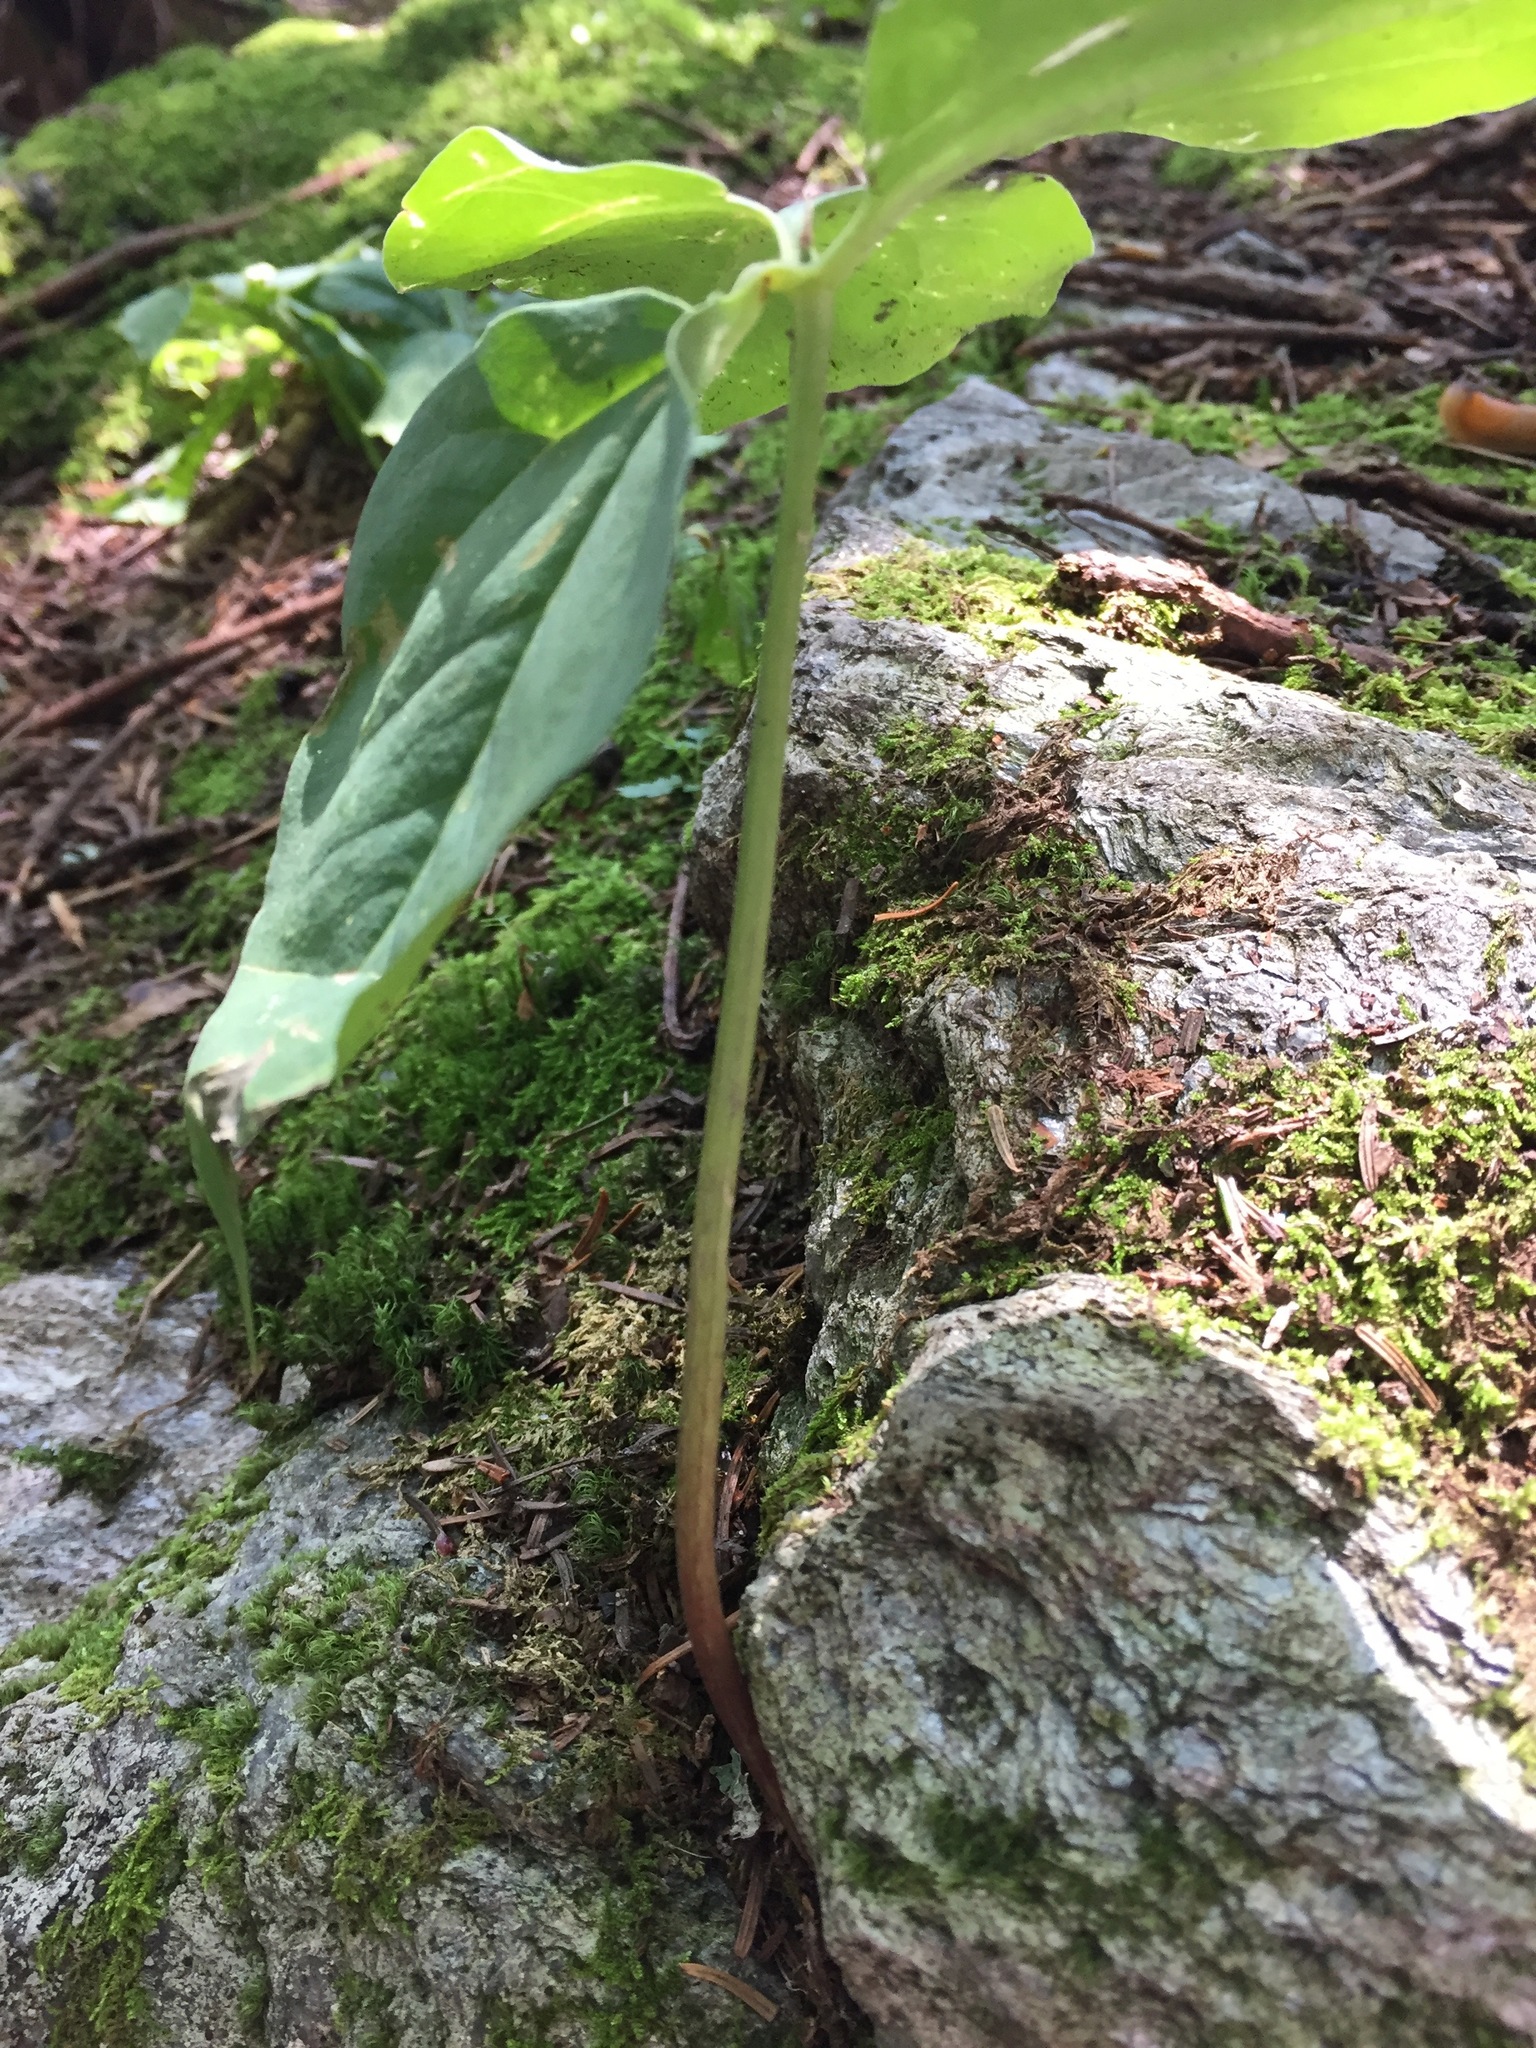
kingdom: Plantae
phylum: Tracheophyta
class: Liliopsida
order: Liliales
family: Melanthiaceae
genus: Trillium
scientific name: Trillium undulatum
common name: Paint trillium
